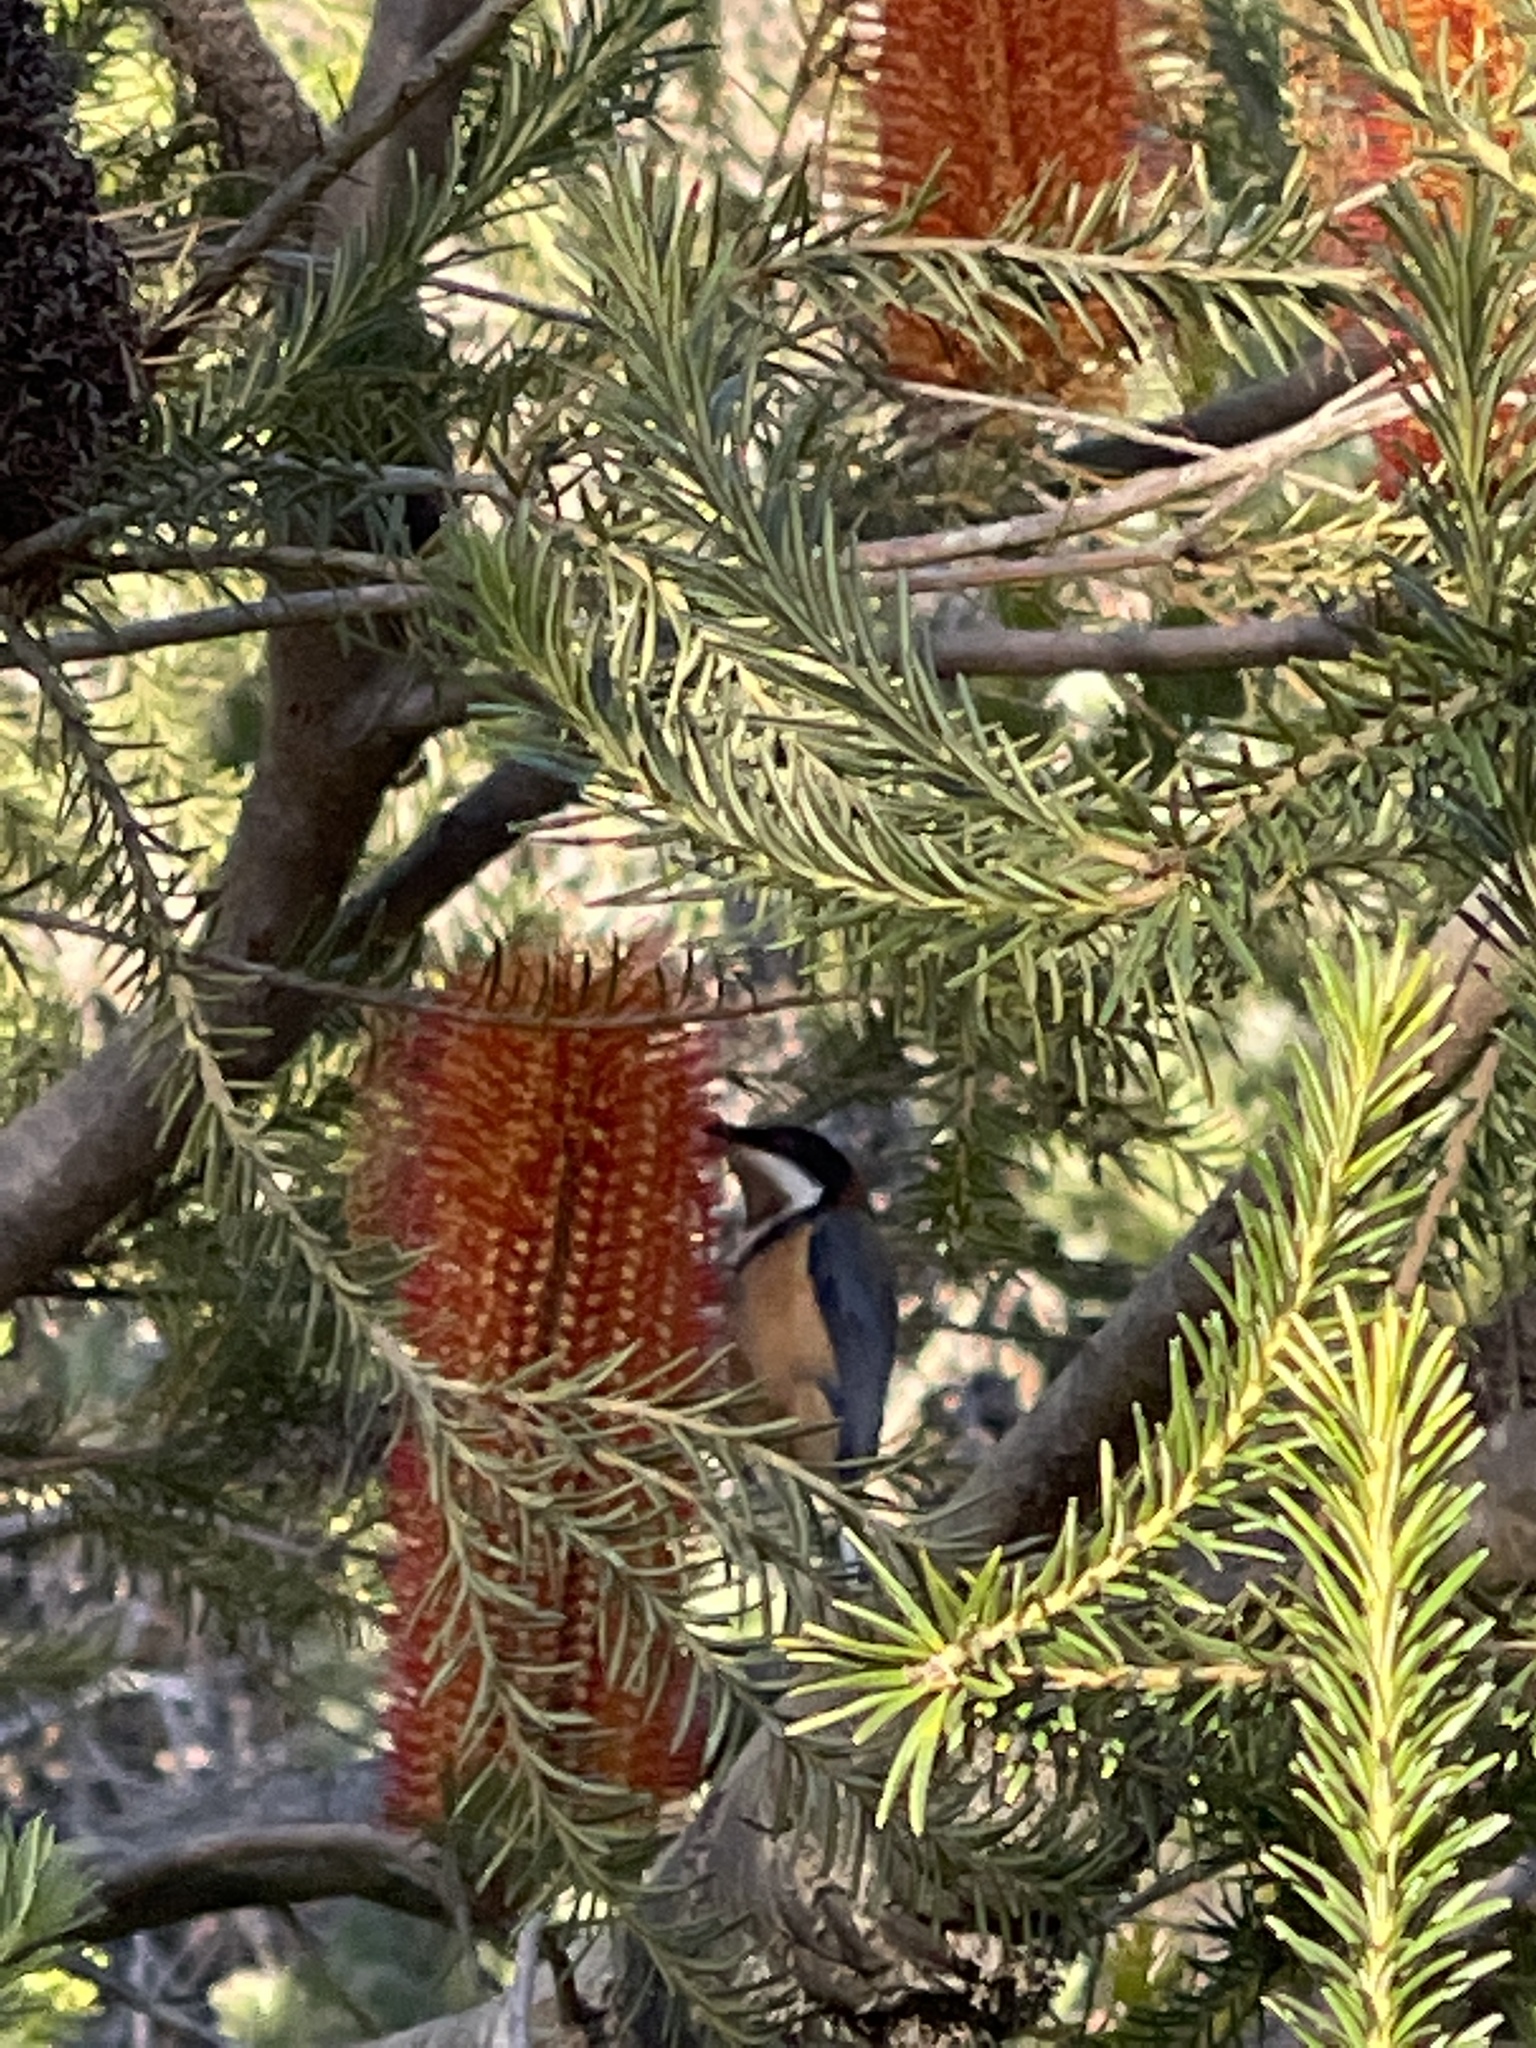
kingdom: Animalia
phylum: Chordata
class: Aves
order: Passeriformes
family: Meliphagidae
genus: Acanthorhynchus
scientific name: Acanthorhynchus tenuirostris
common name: Eastern spinebill
